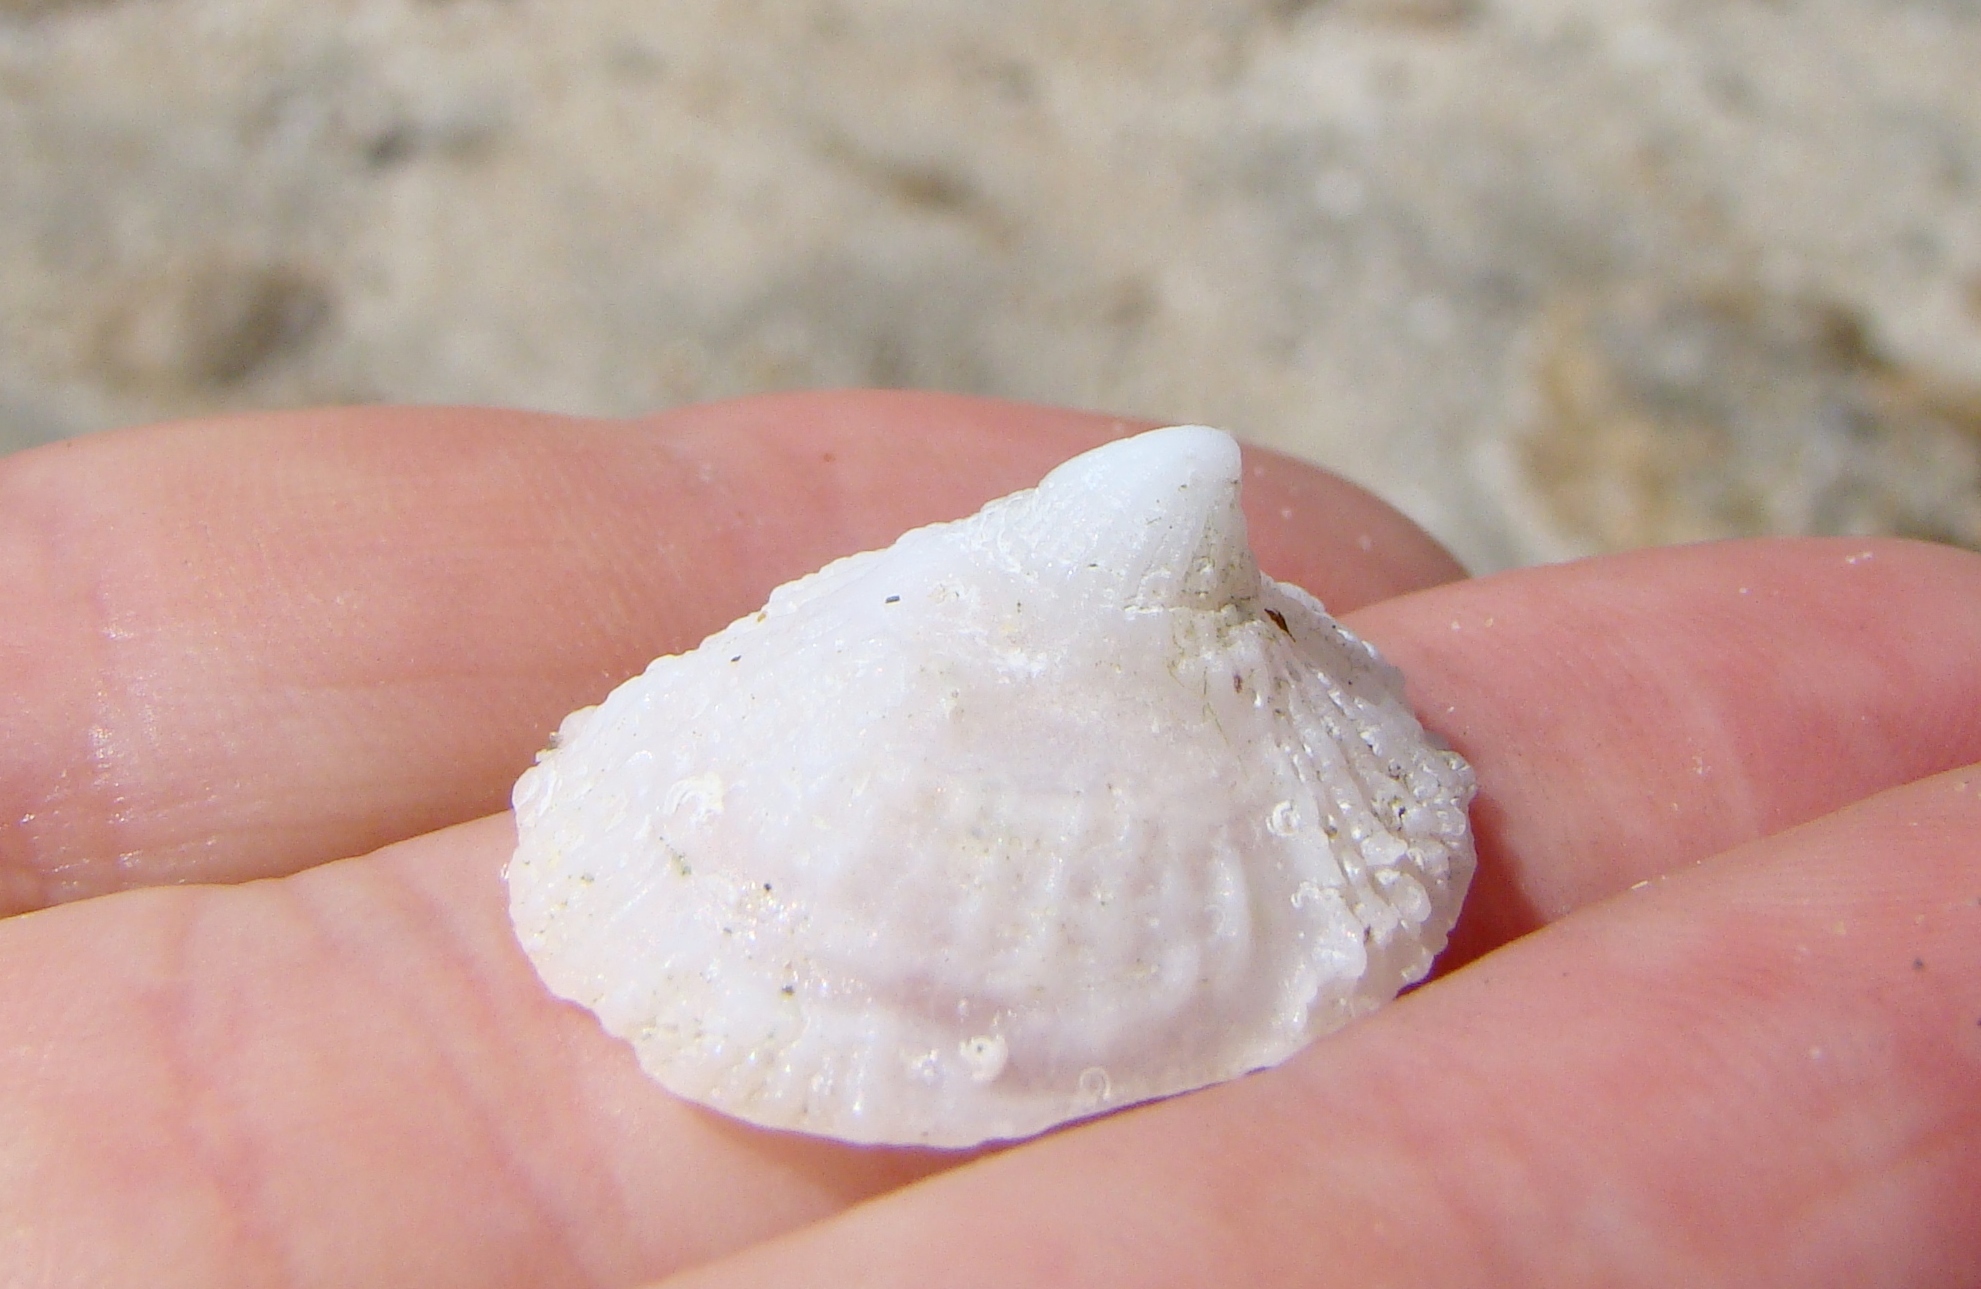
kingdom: Animalia
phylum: Mollusca
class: Gastropoda
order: Ellobiida
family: Trimusculidae
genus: Trimusculus
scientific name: Trimusculus conicus
